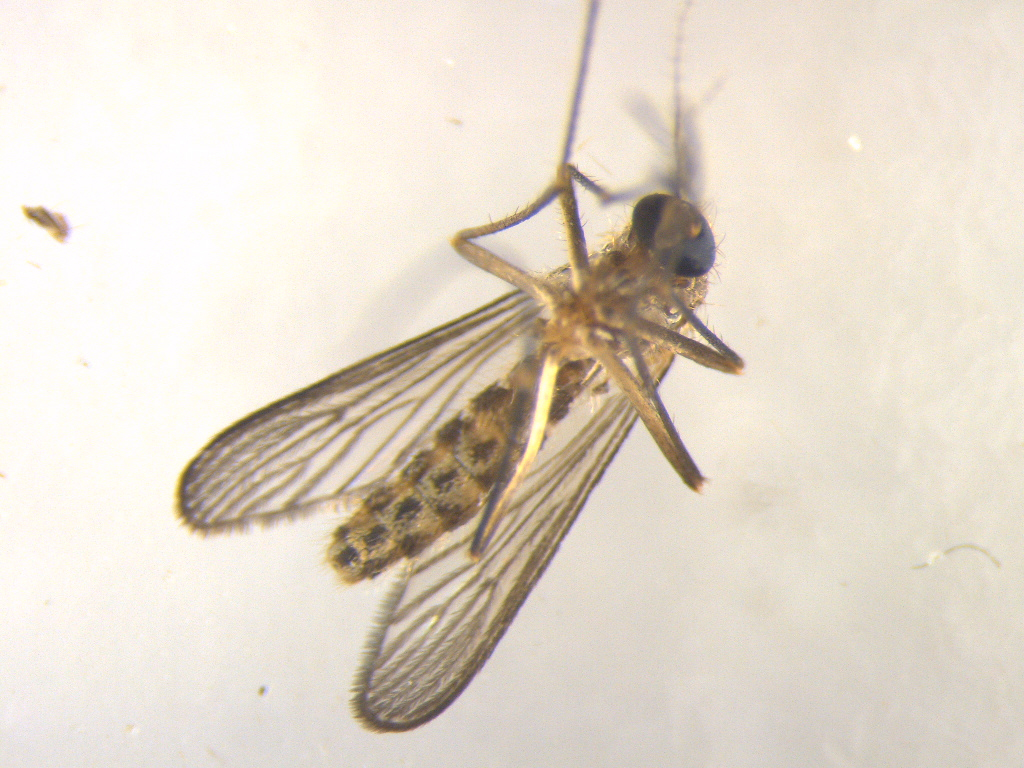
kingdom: Animalia
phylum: Arthropoda
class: Insecta
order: Diptera
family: Culicidae
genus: Culex
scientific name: Culex pervigilans
